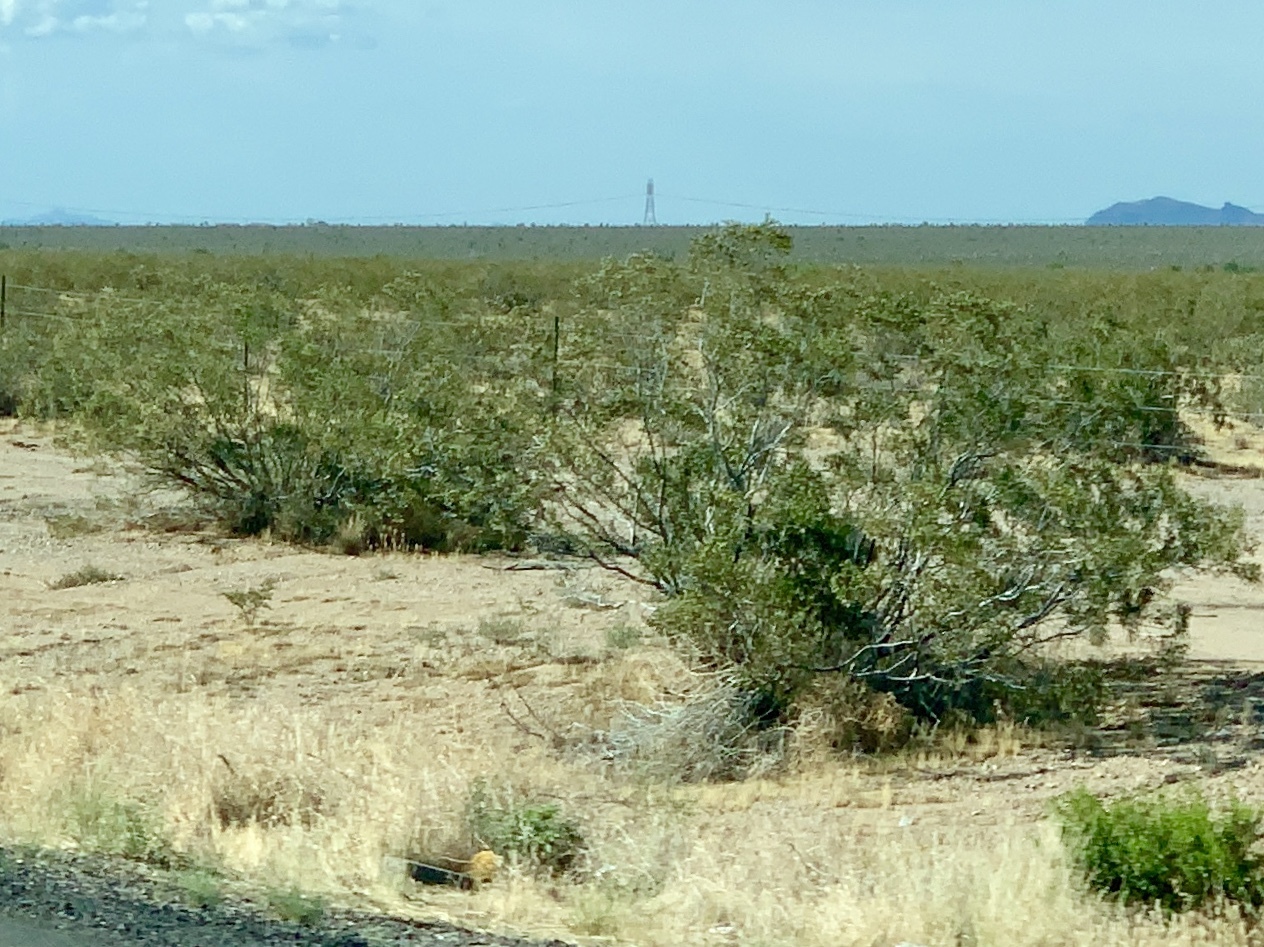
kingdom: Plantae
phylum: Tracheophyta
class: Magnoliopsida
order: Zygophyllales
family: Zygophyllaceae
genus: Larrea
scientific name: Larrea tridentata
